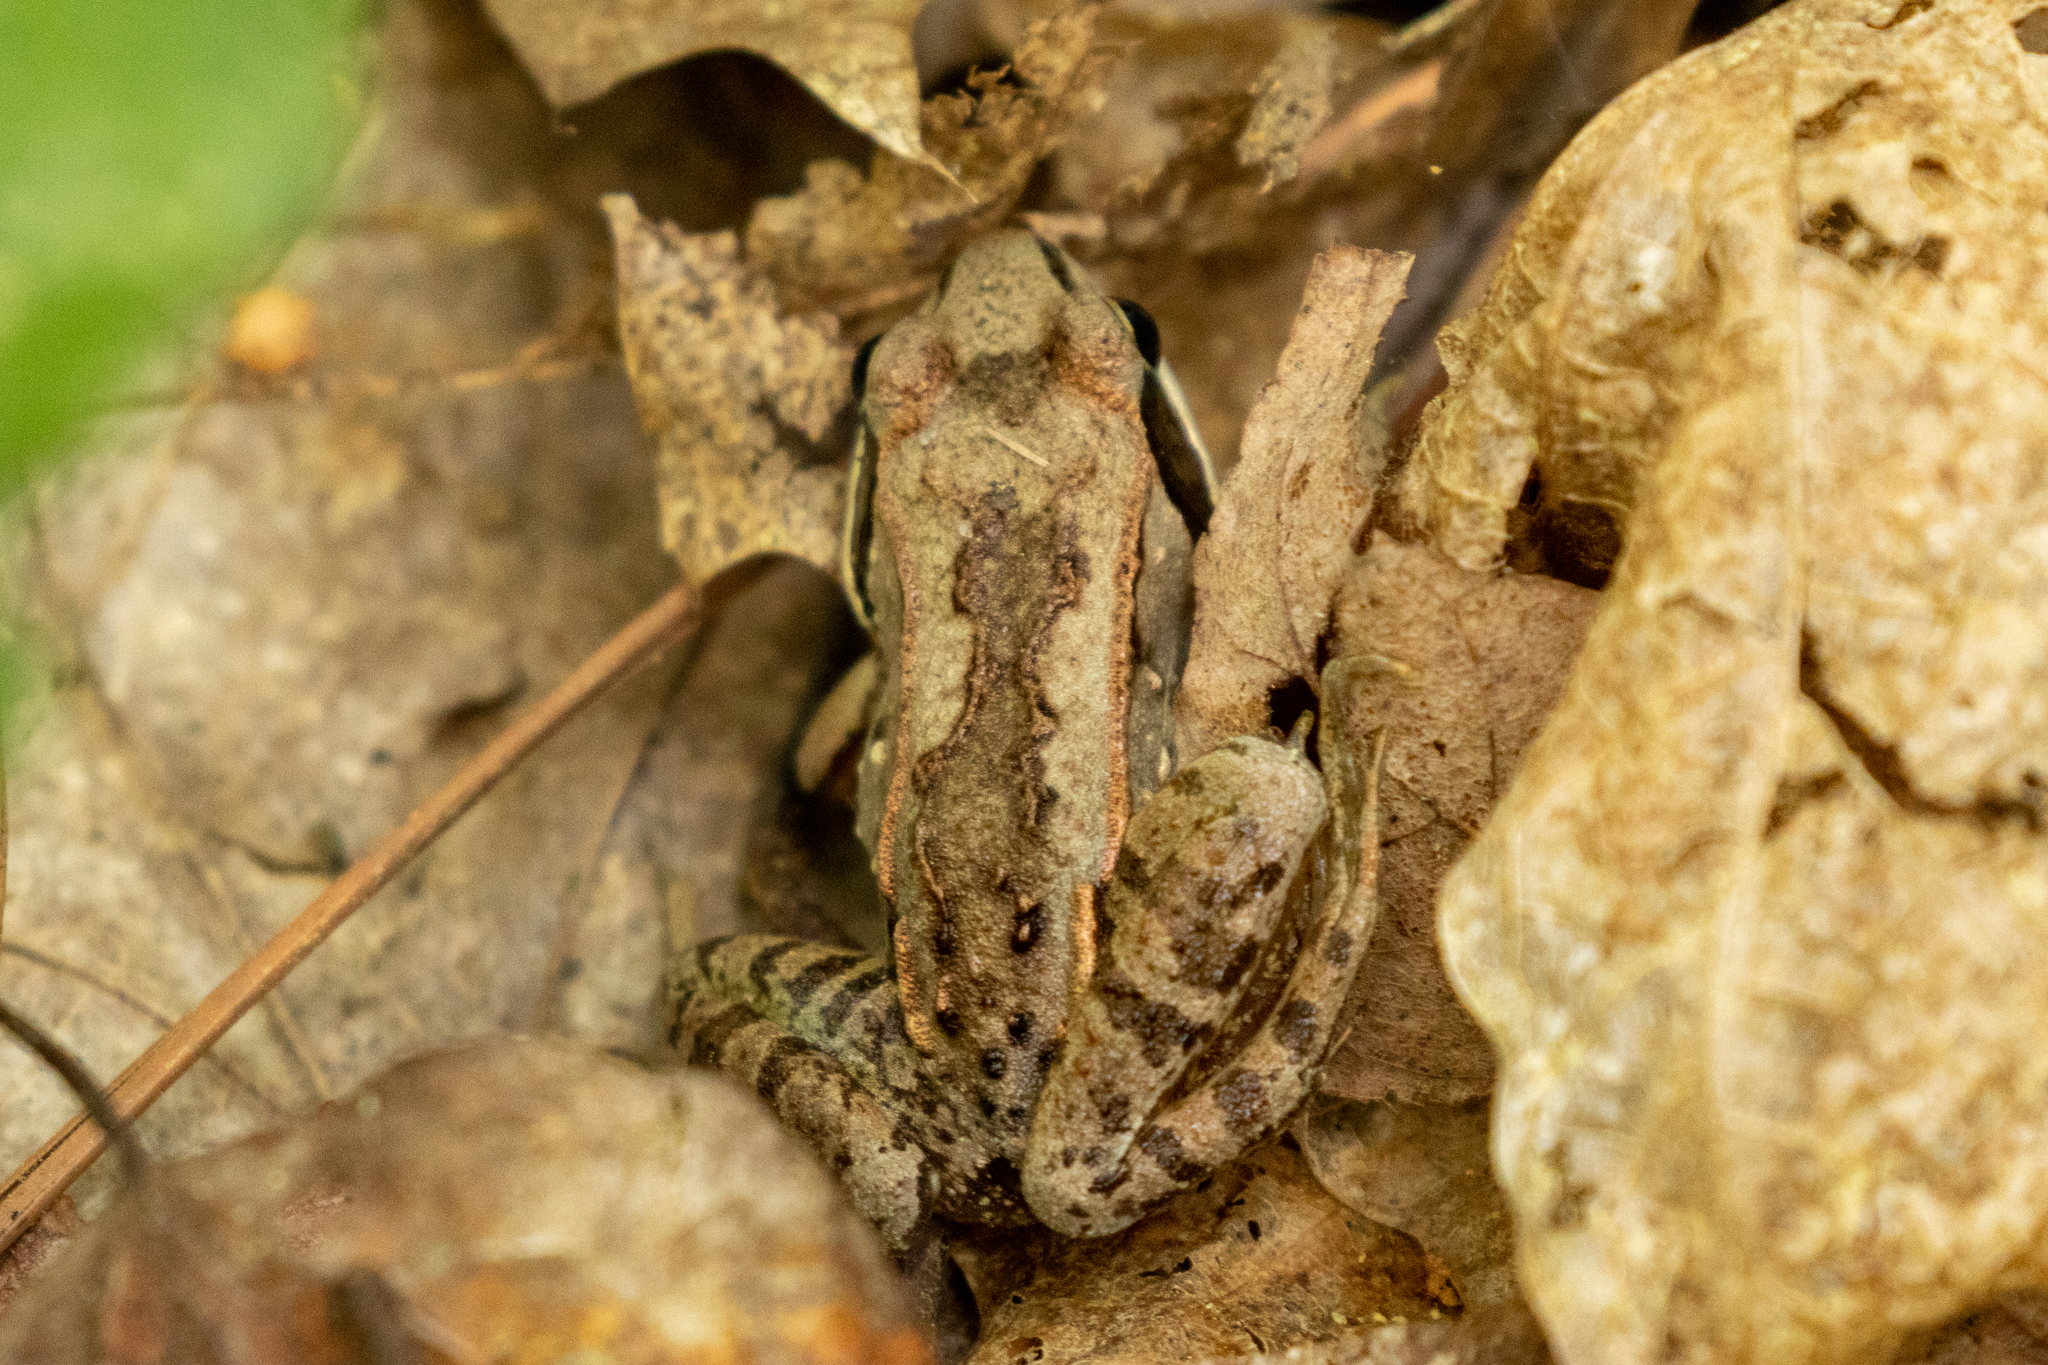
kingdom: Animalia
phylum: Chordata
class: Amphibia
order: Anura
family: Ranidae
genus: Lithobates
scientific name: Lithobates sylvaticus
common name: Wood frog
